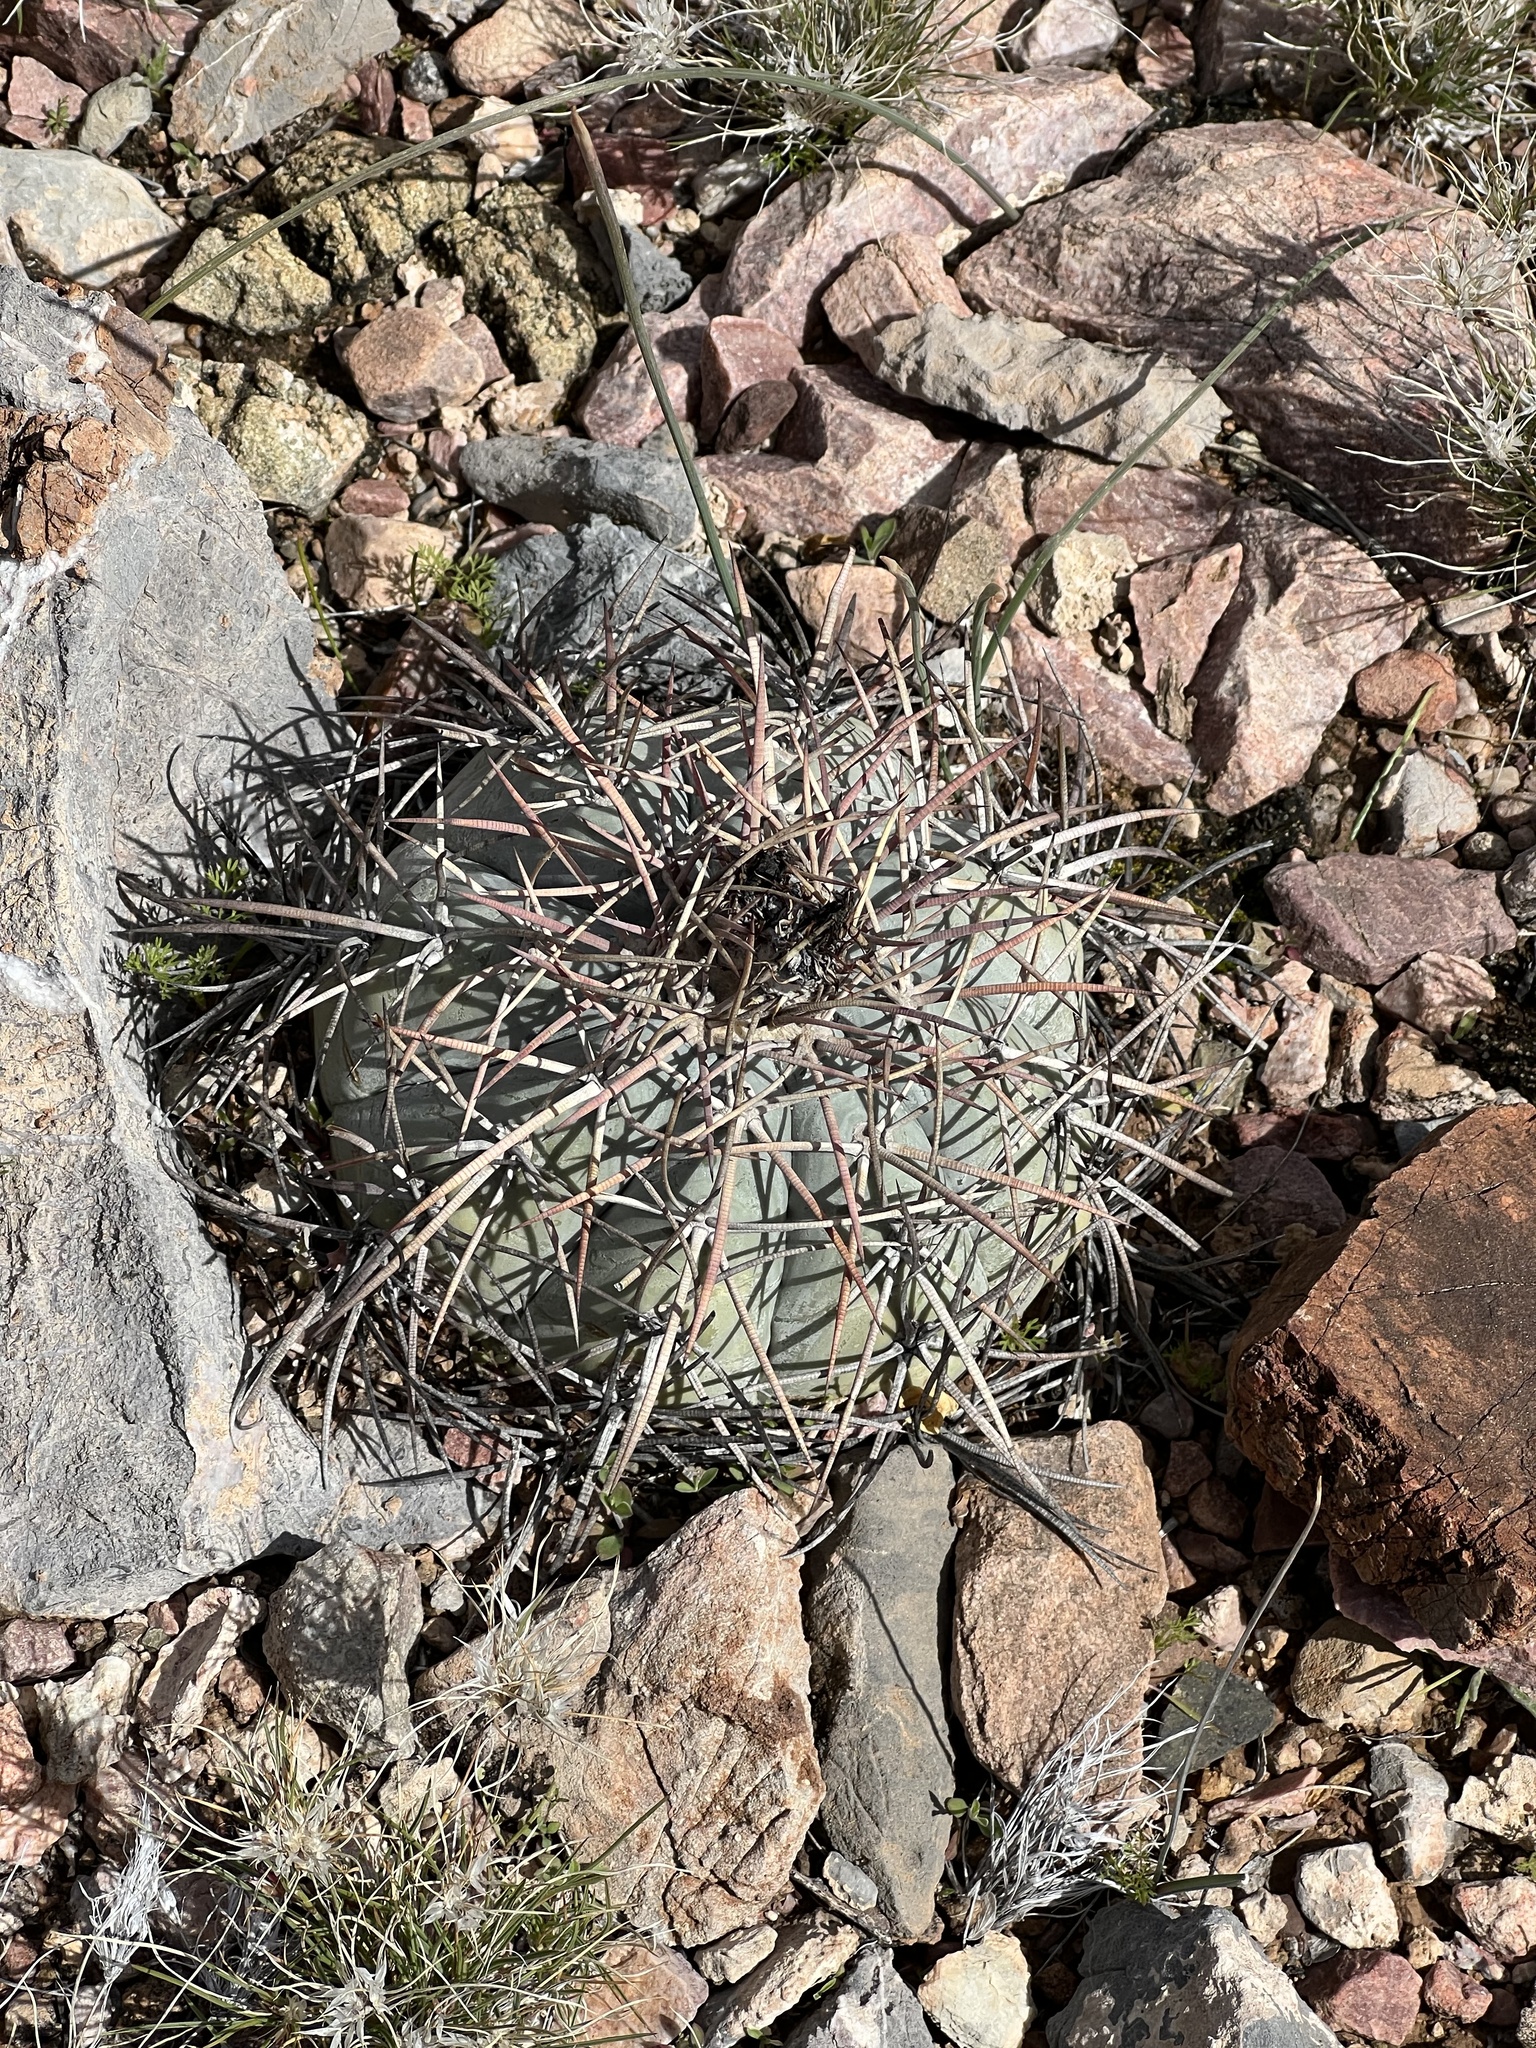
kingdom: Plantae
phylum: Tracheophyta
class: Magnoliopsida
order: Caryophyllales
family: Cactaceae
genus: Echinocactus
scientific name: Echinocactus horizonthalonius
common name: Devilshead
